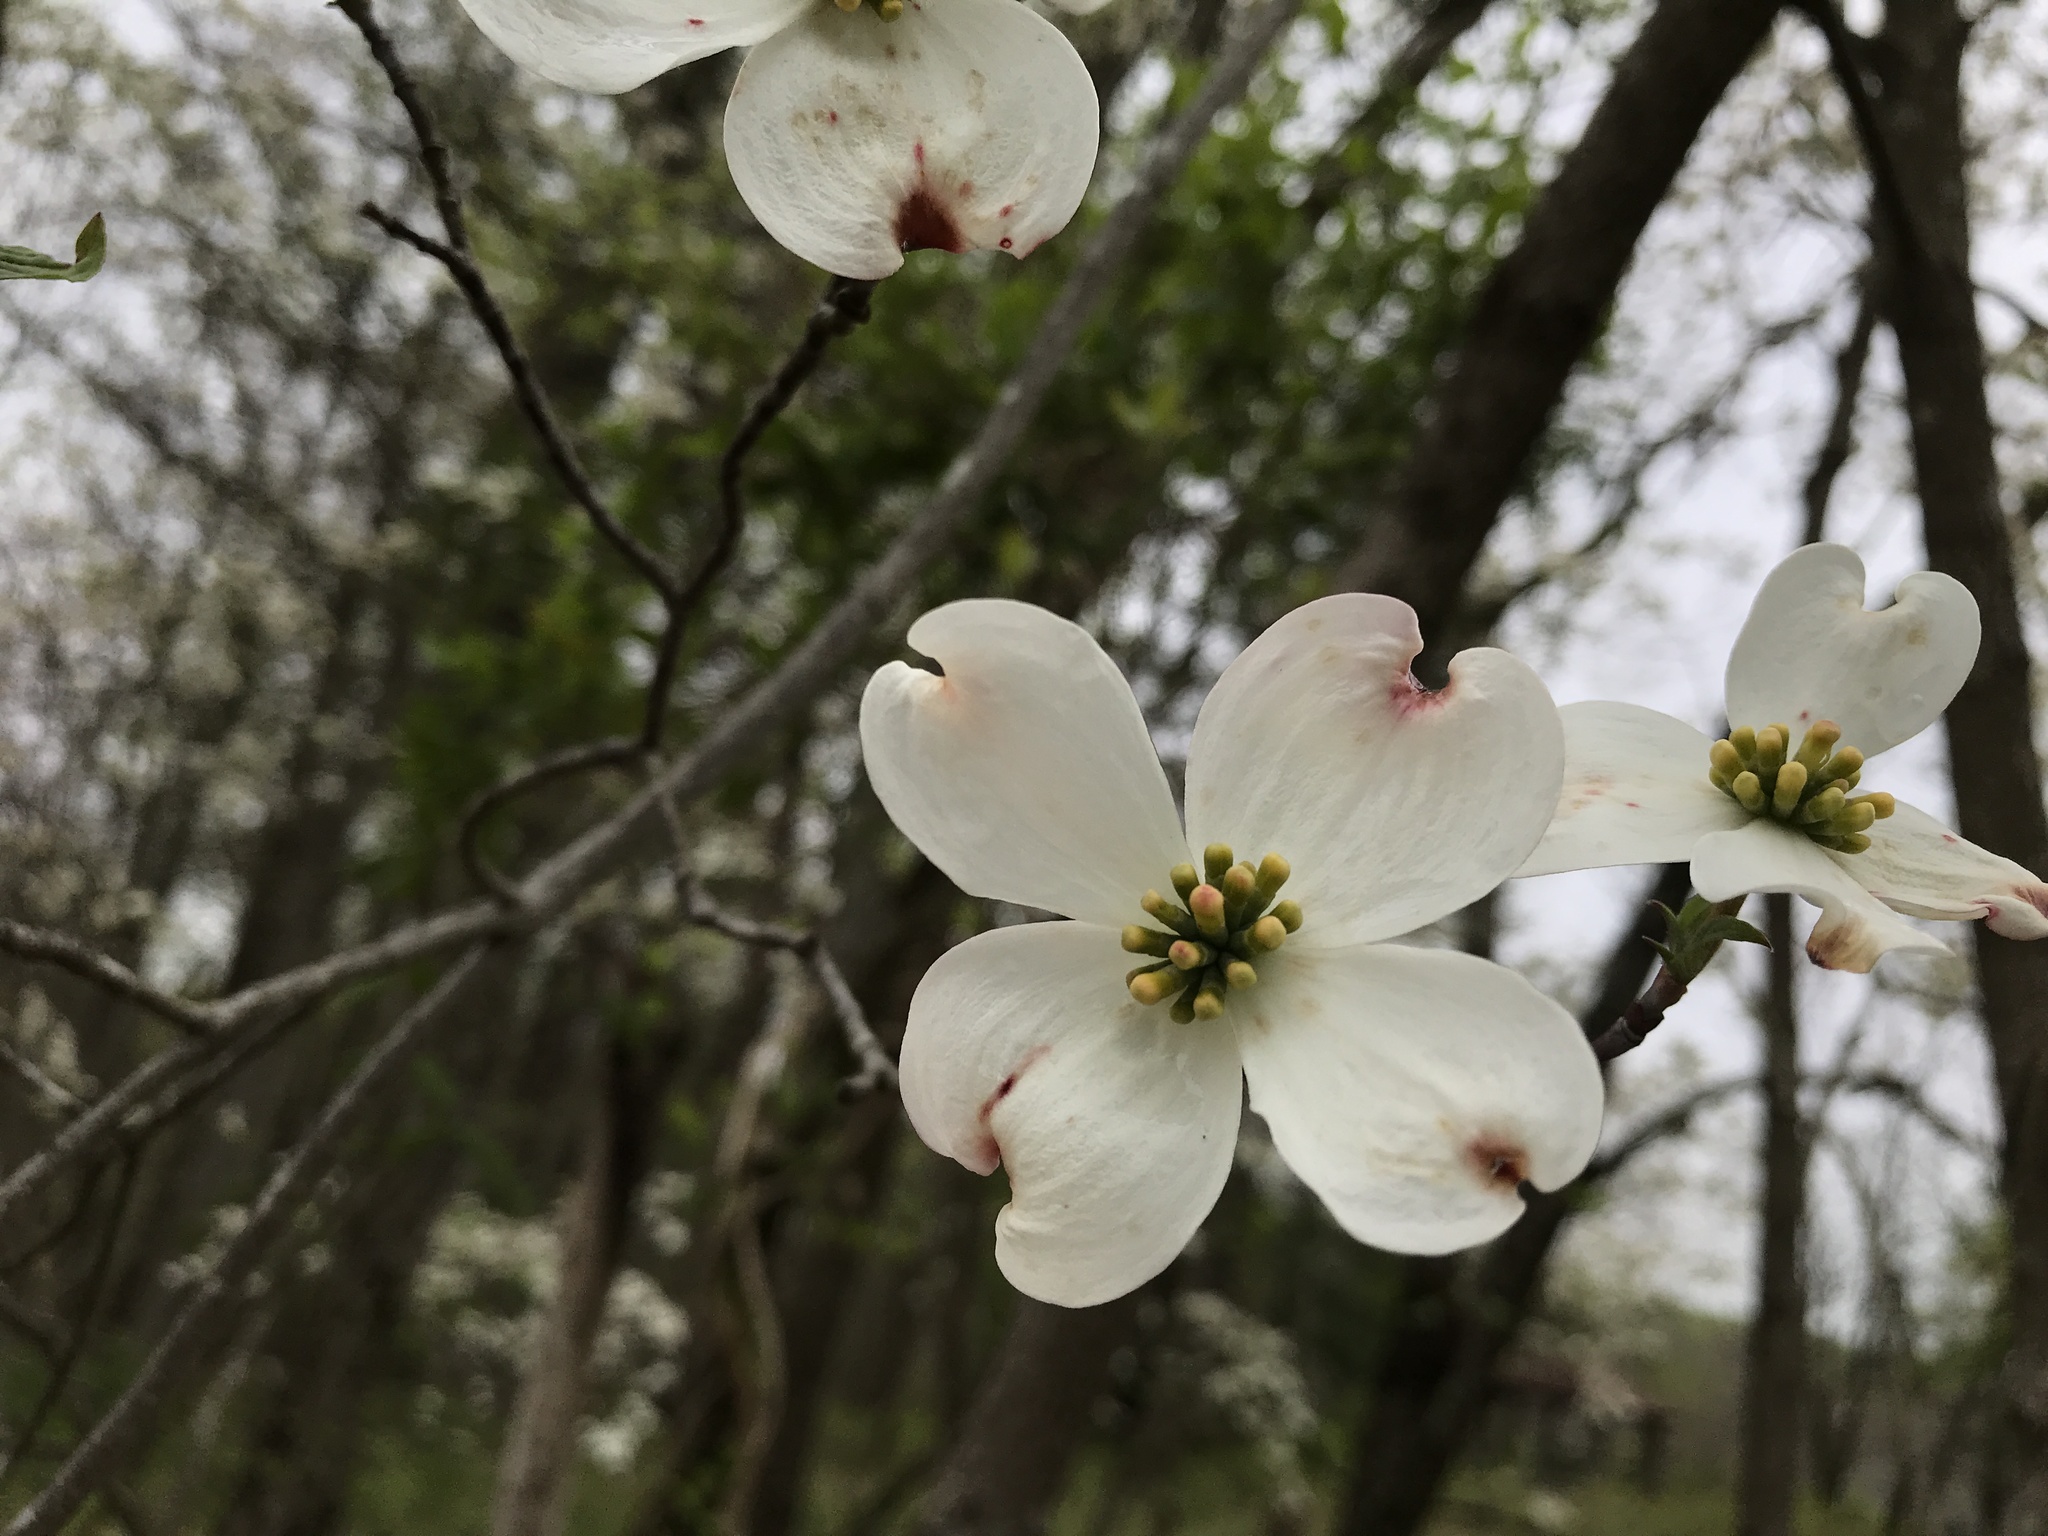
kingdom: Plantae
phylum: Tracheophyta
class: Magnoliopsida
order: Cornales
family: Cornaceae
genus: Cornus
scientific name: Cornus florida
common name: Flowering dogwood
